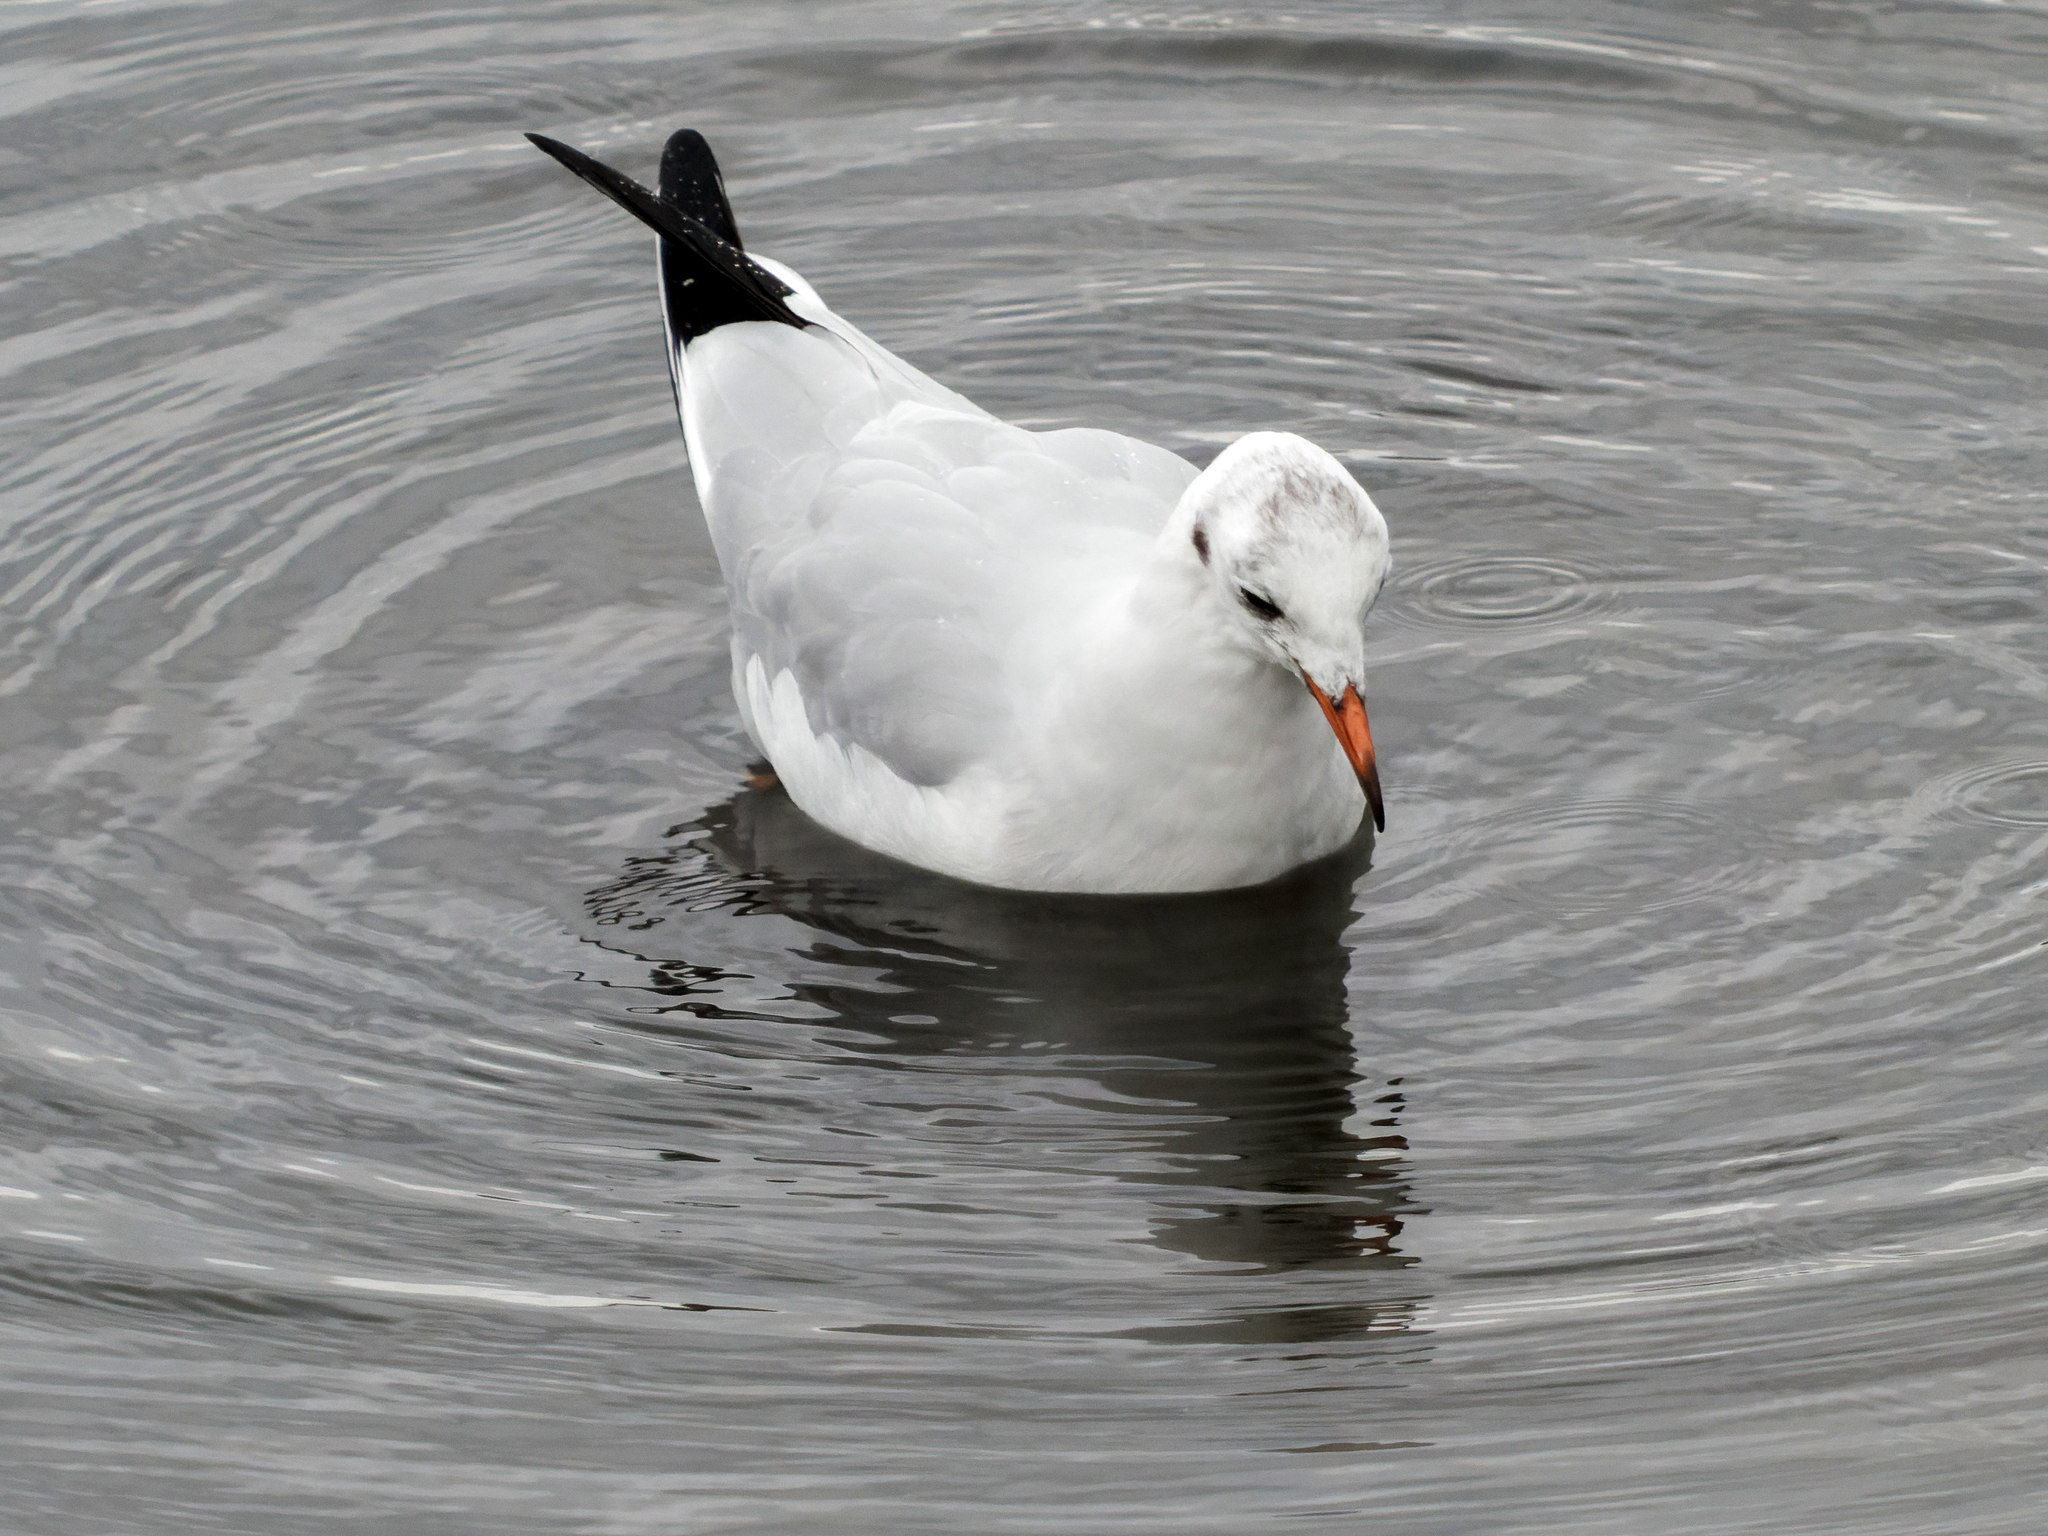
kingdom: Animalia
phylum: Chordata
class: Aves
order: Charadriiformes
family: Laridae
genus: Chroicocephalus
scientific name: Chroicocephalus ridibundus
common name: Black-headed gull
